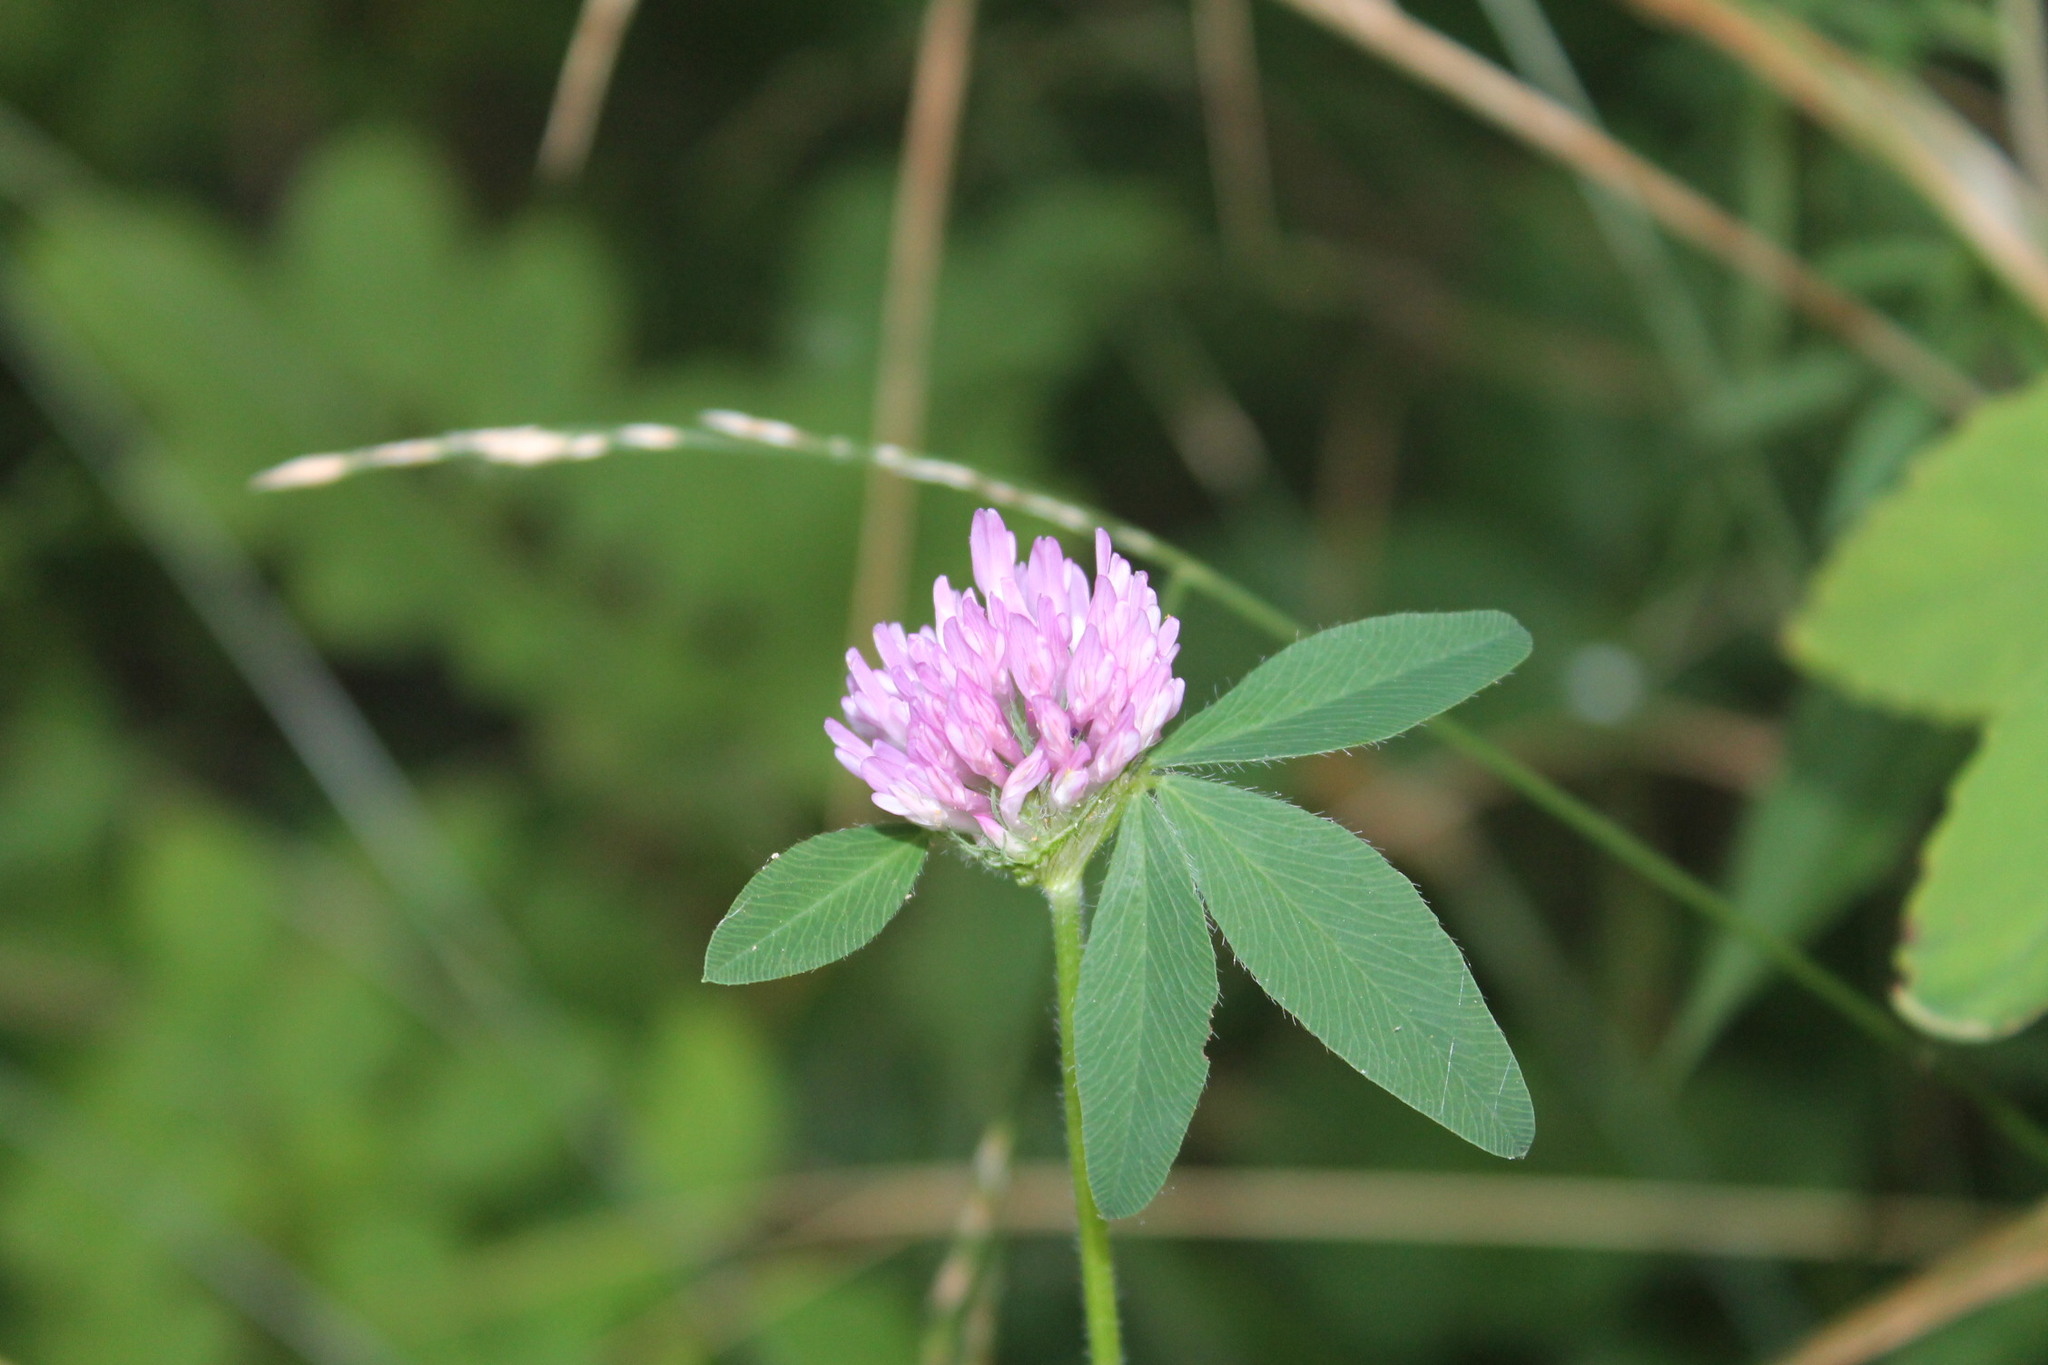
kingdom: Plantae
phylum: Tracheophyta
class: Magnoliopsida
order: Fabales
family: Fabaceae
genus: Trifolium
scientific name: Trifolium pratense
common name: Red clover
